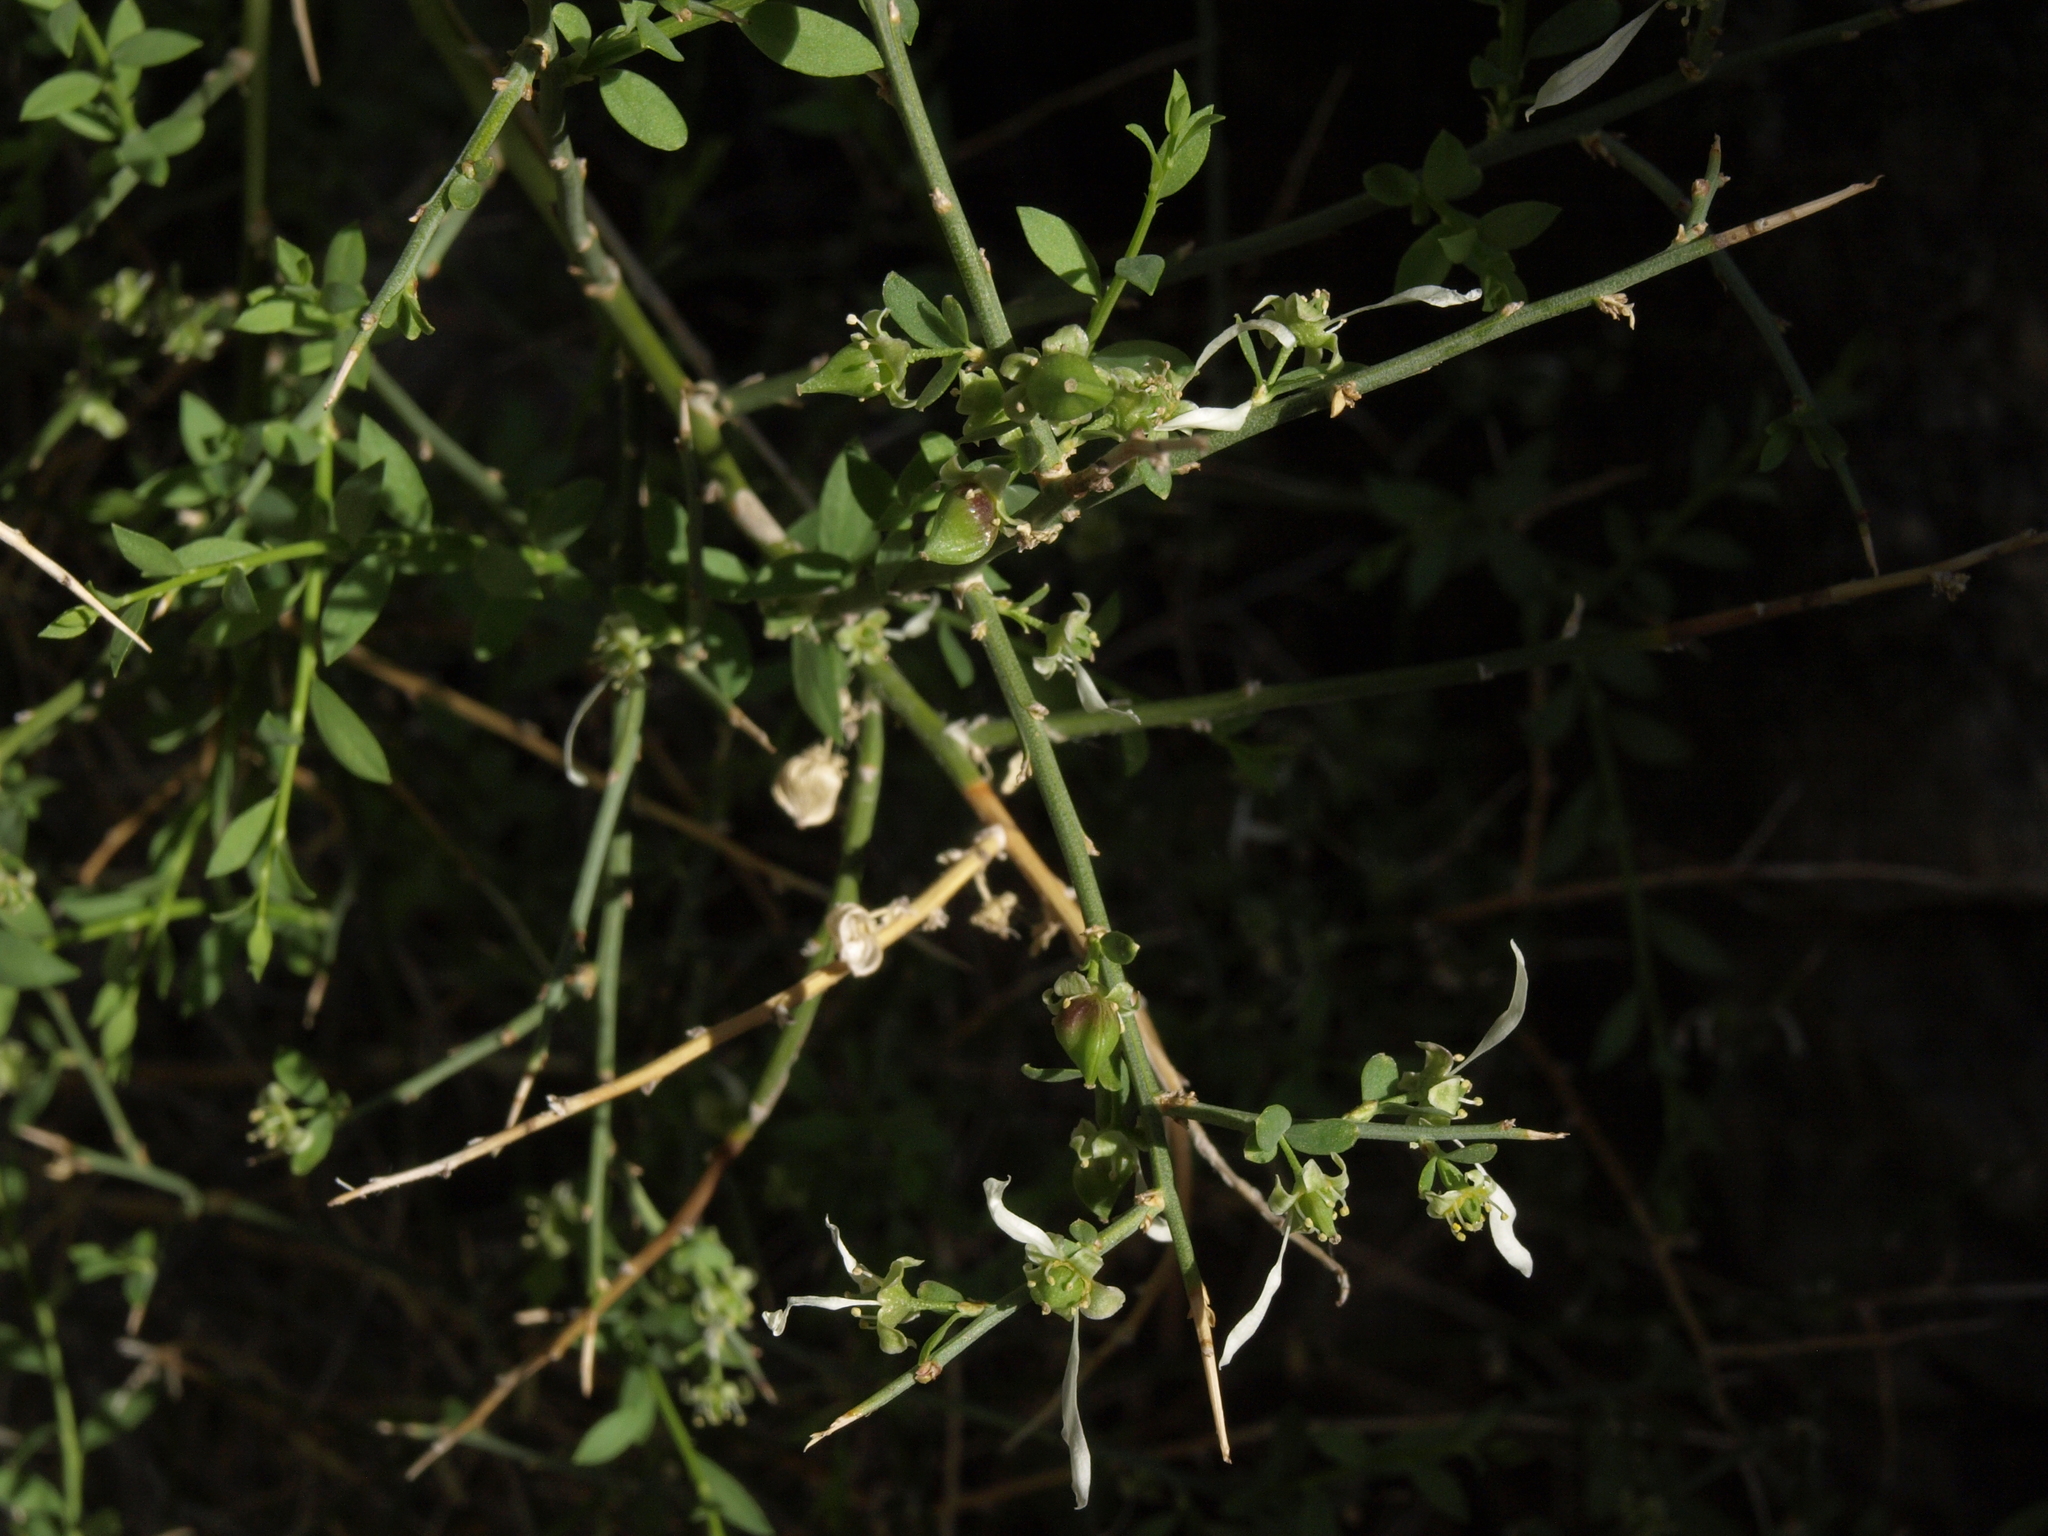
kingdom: Plantae
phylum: Tracheophyta
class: Magnoliopsida
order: Crossosomatales
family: Crossosomataceae
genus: Glossopetalon
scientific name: Glossopetalon spinescens
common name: Spring greasebush
